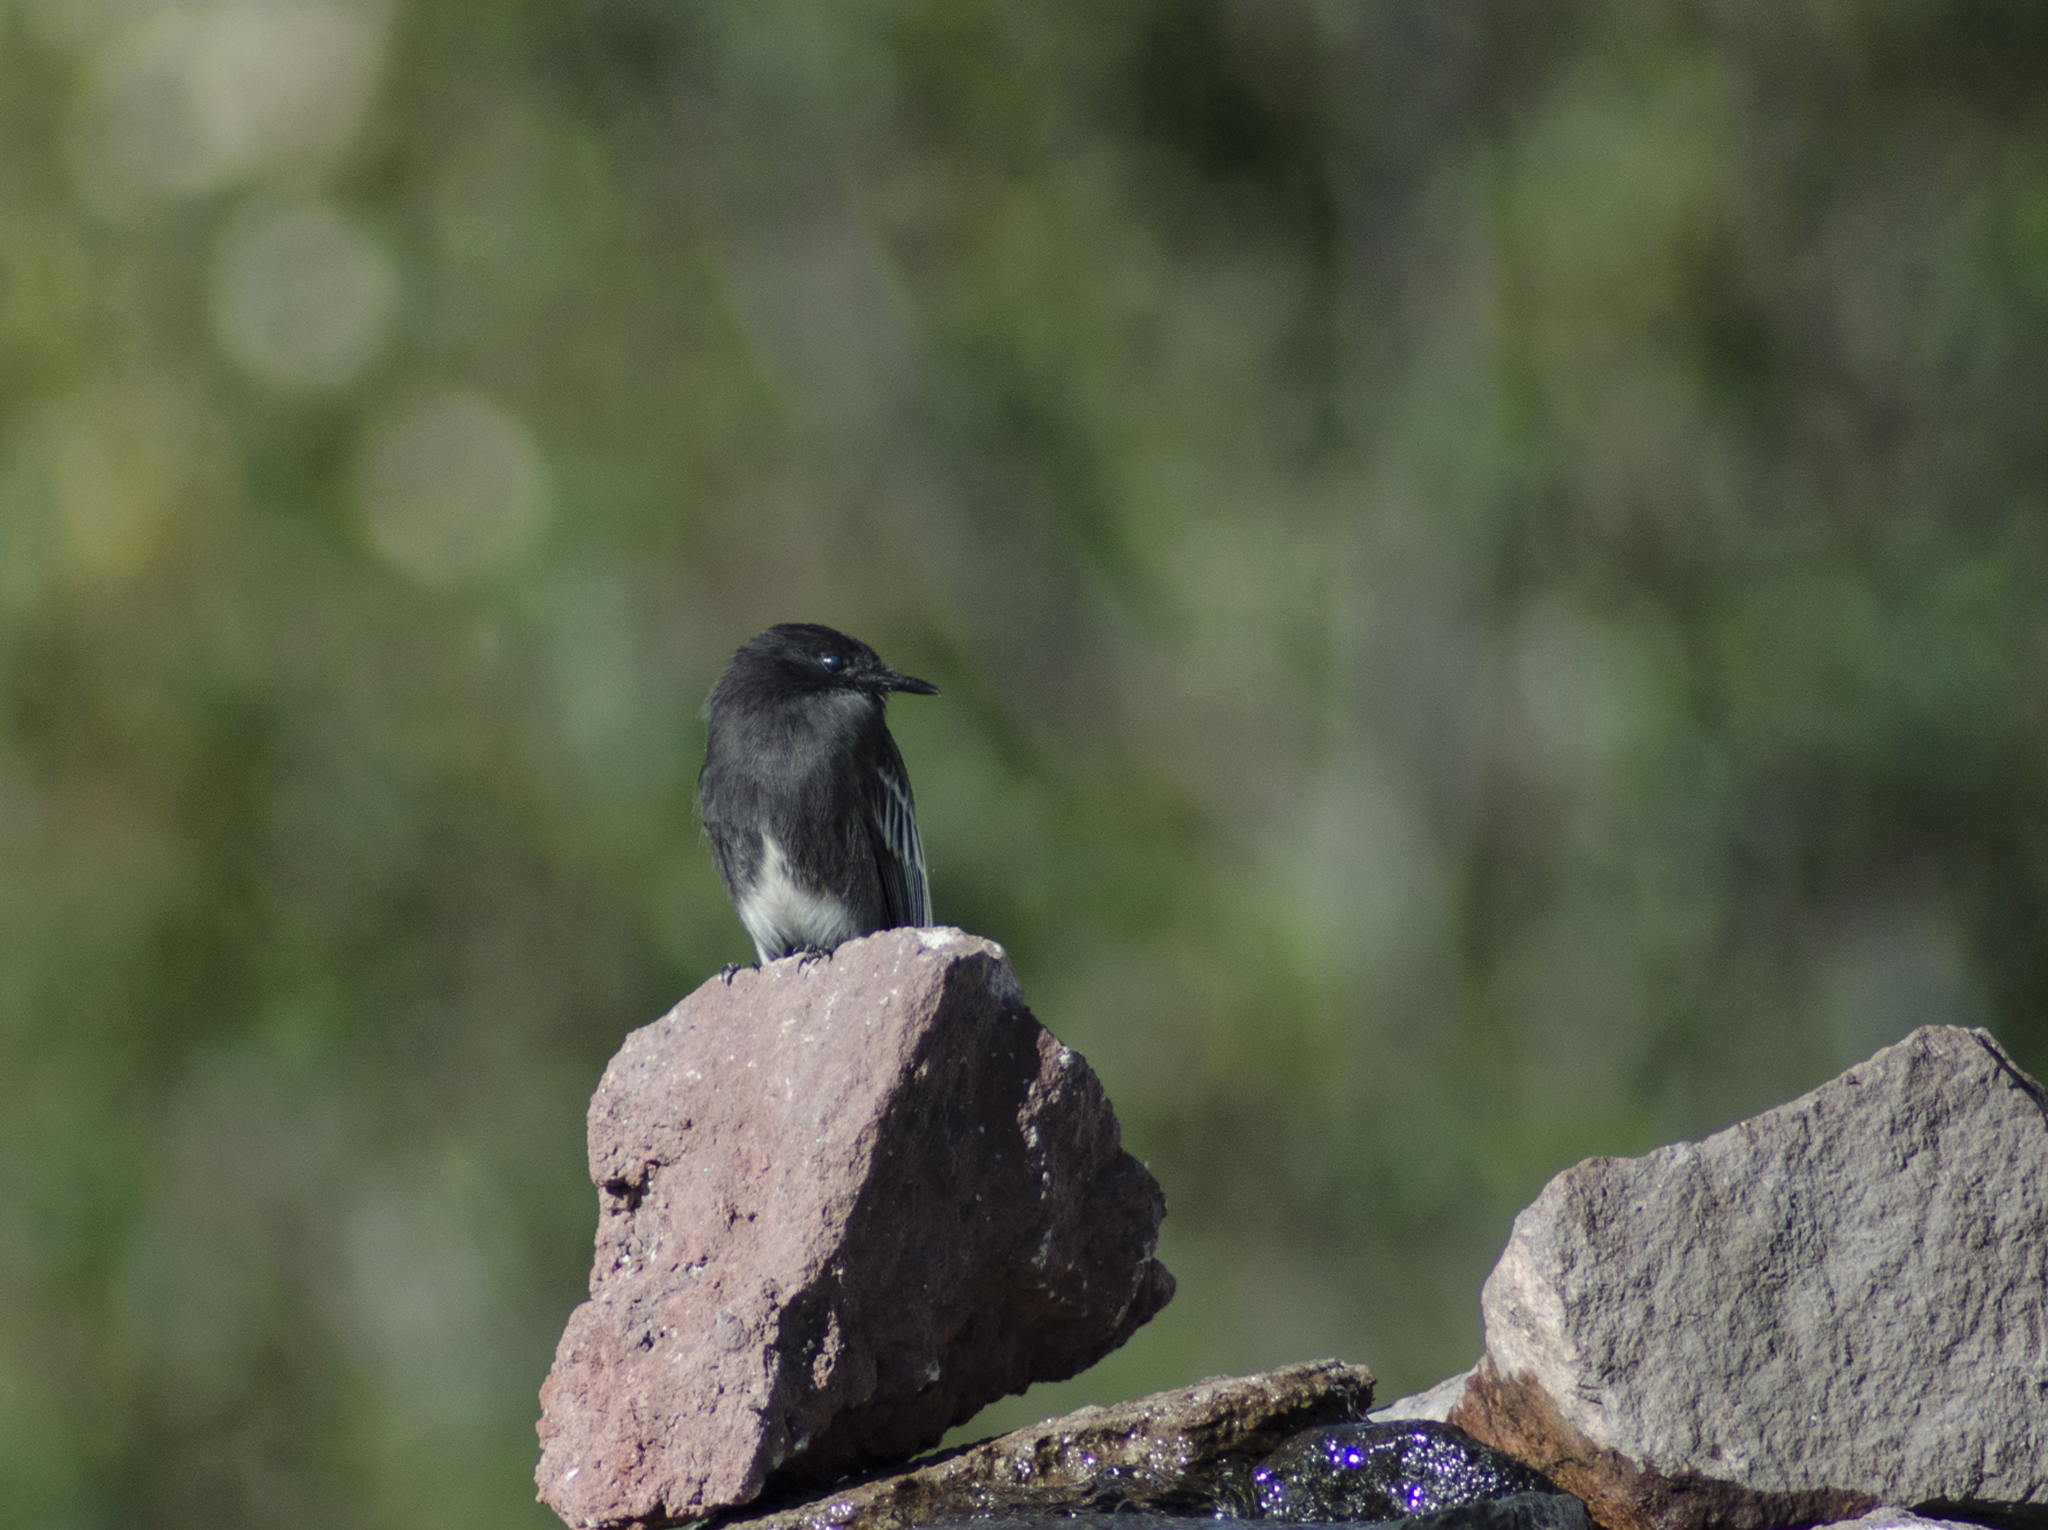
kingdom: Animalia
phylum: Chordata
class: Aves
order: Passeriformes
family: Tyrannidae
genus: Sayornis
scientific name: Sayornis nigricans
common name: Black phoebe
